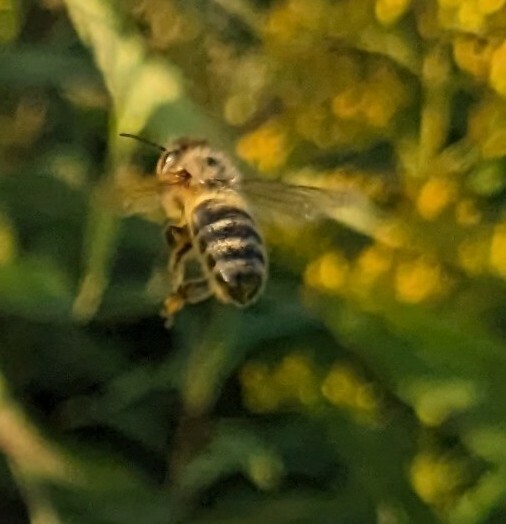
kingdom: Animalia
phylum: Arthropoda
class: Insecta
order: Hymenoptera
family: Apidae
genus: Apis
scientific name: Apis mellifera
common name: Honey bee
